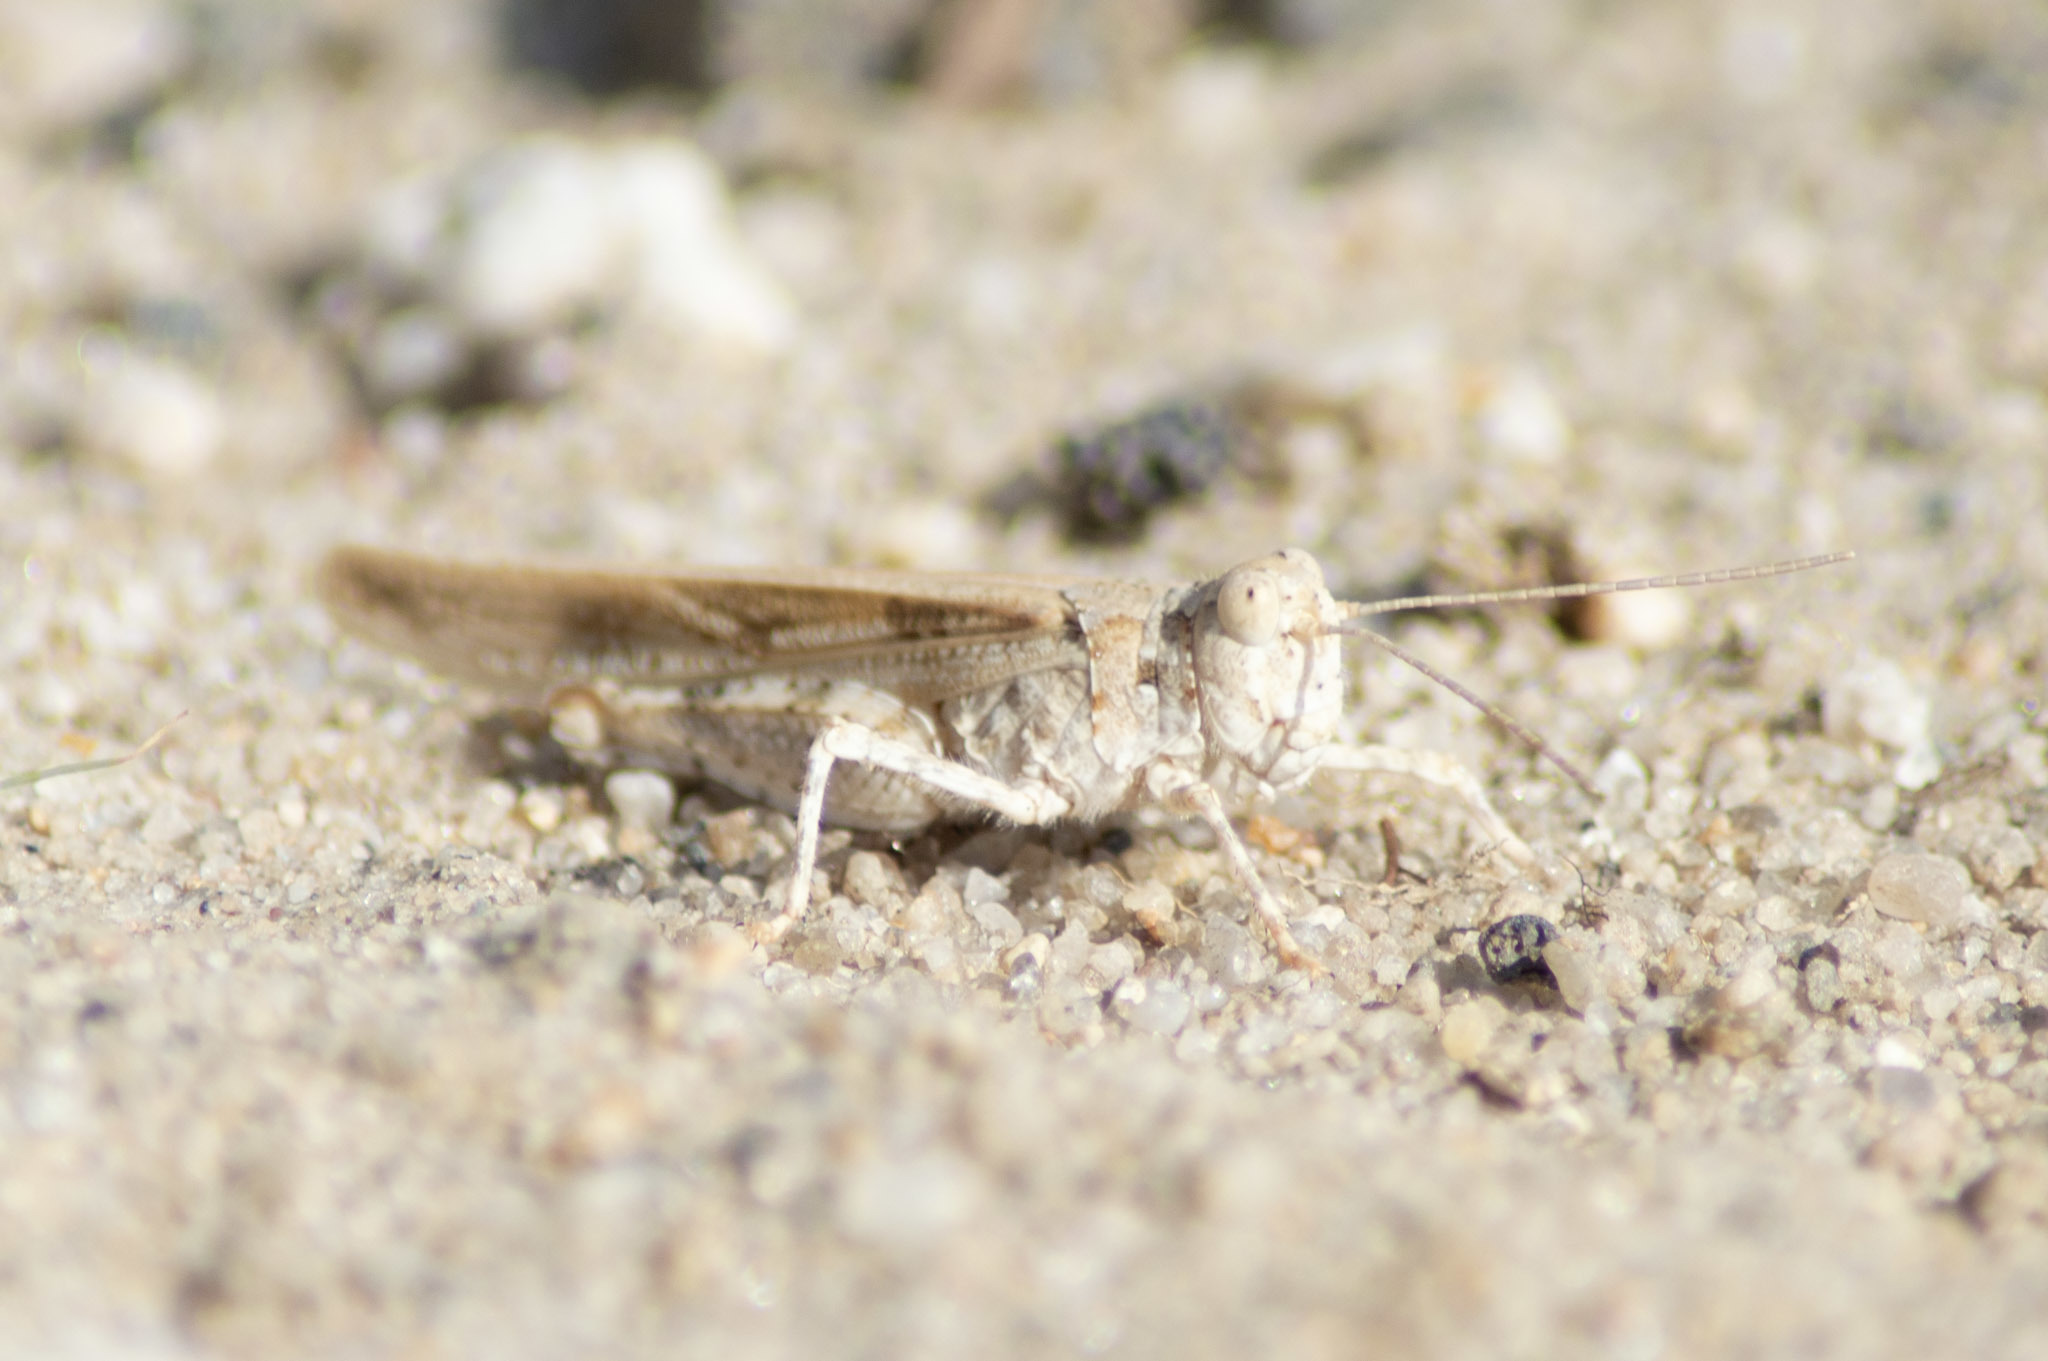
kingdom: Animalia
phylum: Arthropoda
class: Insecta
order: Orthoptera
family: Acrididae
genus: Trimerotropis
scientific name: Trimerotropis maritima
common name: Seaside locust
